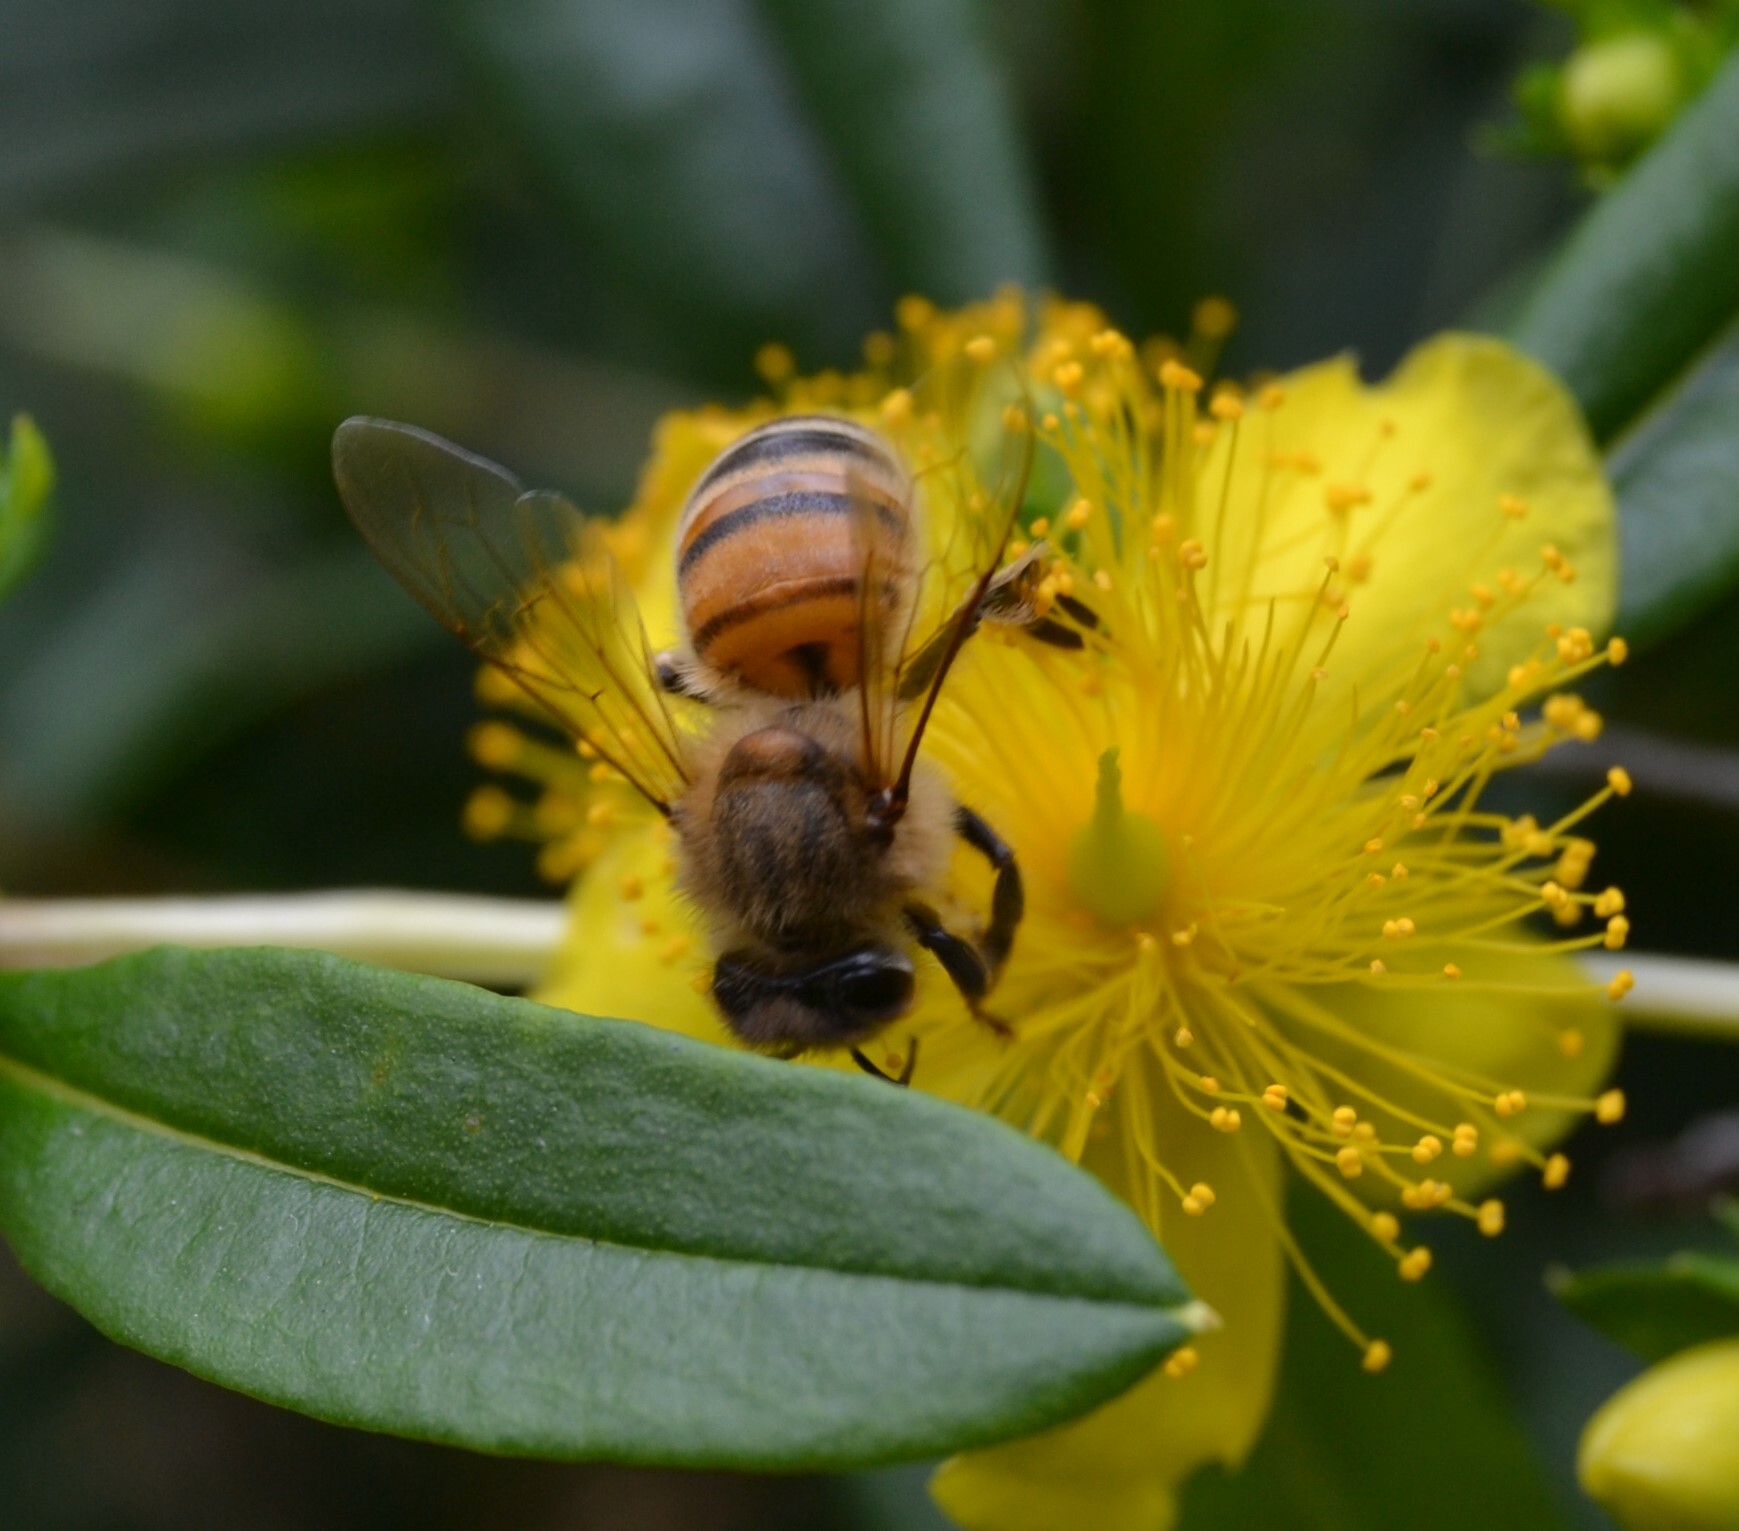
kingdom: Animalia
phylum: Arthropoda
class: Insecta
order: Hymenoptera
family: Apidae
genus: Apis
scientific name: Apis mellifera
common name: Honey bee
